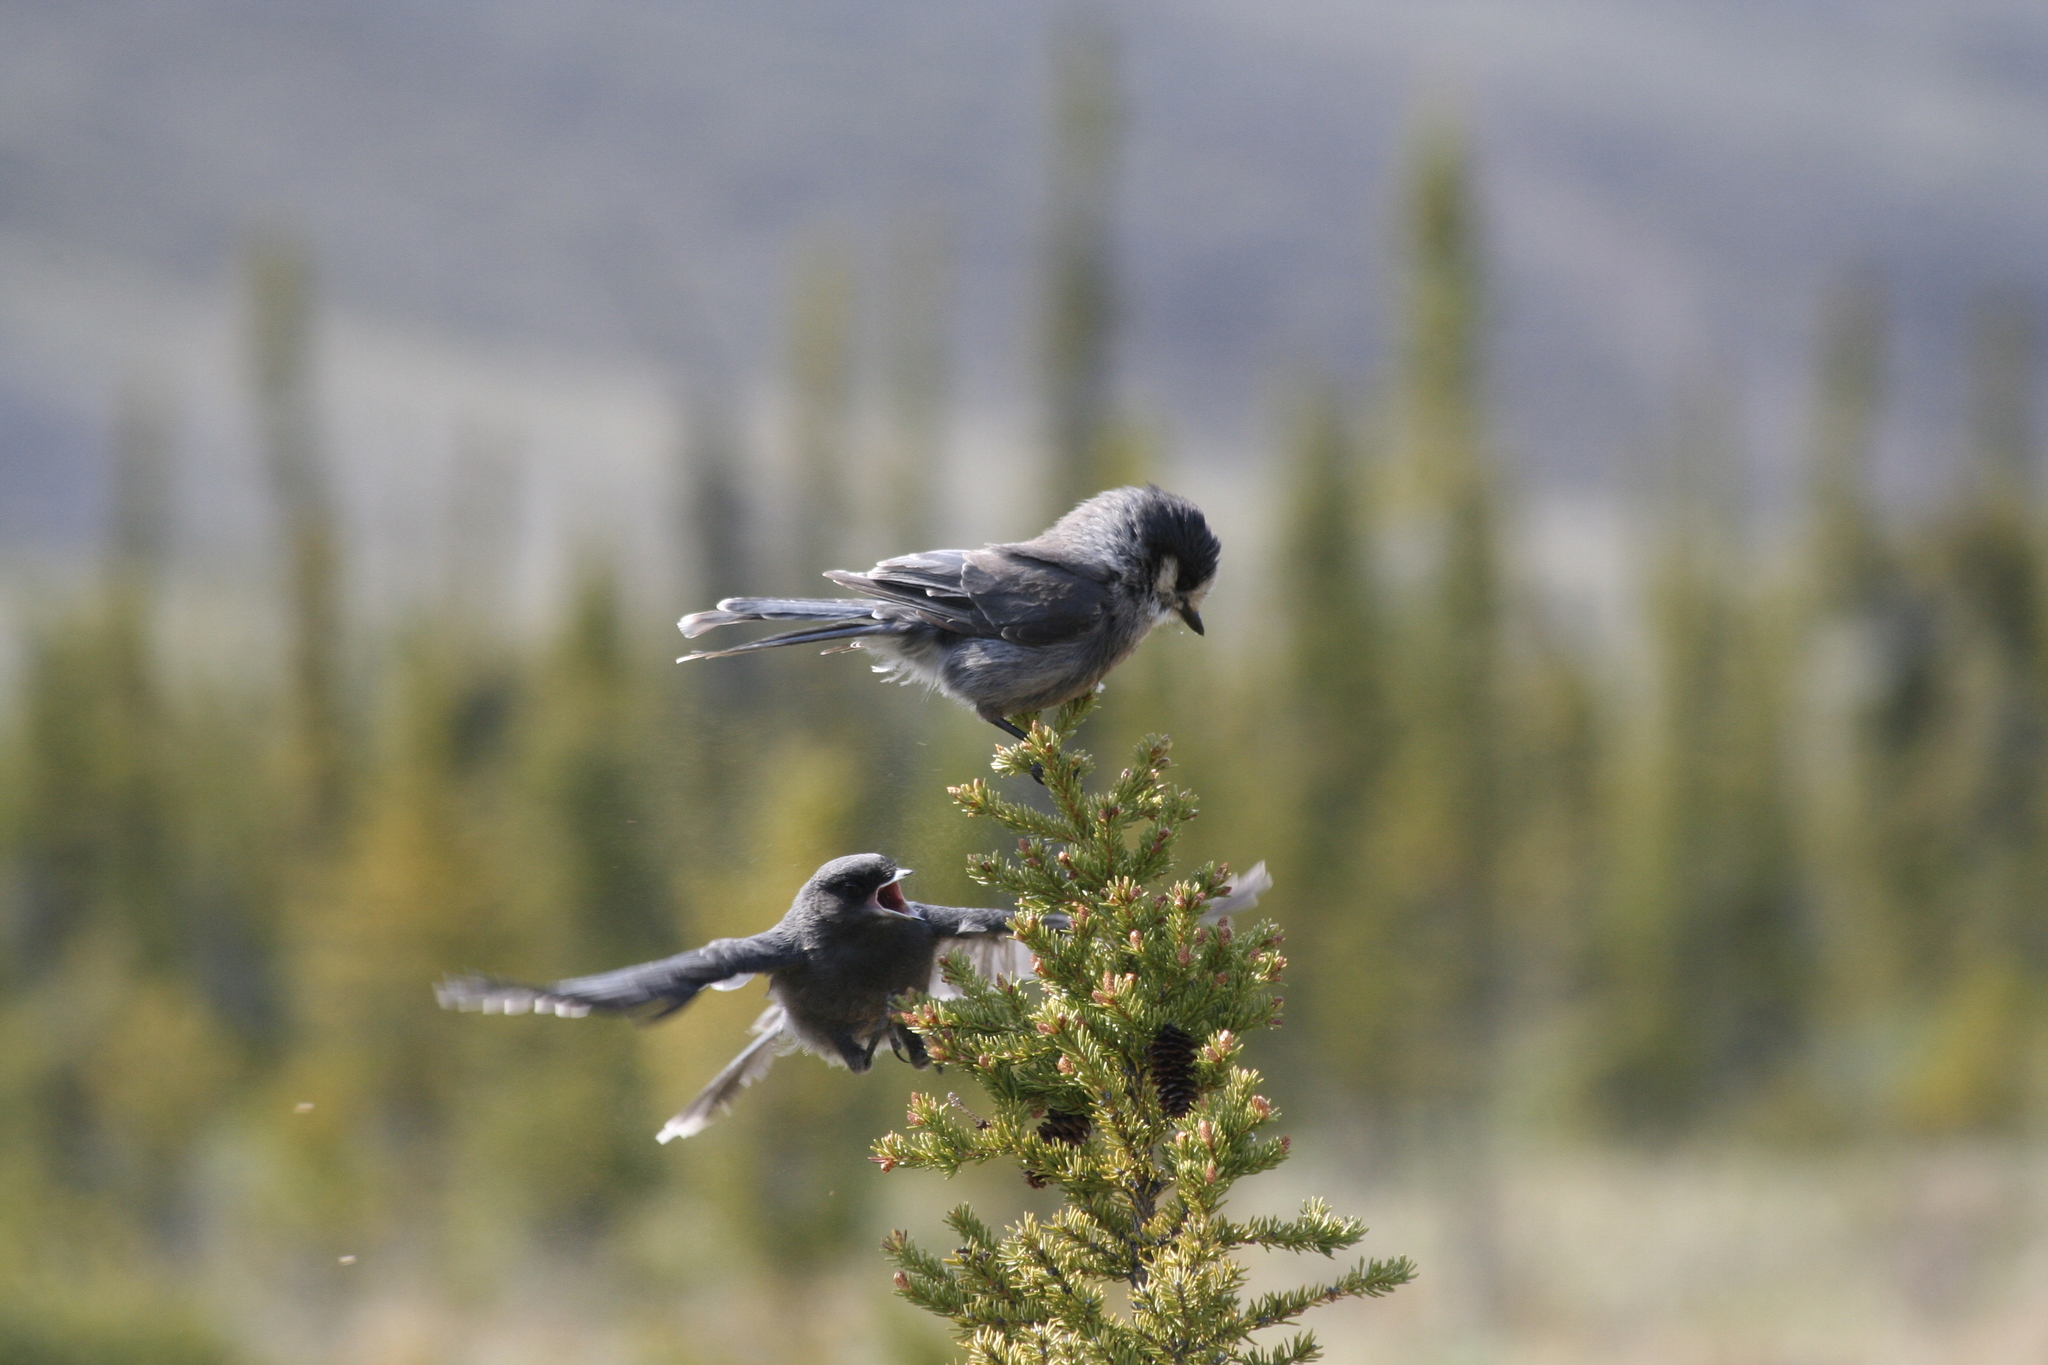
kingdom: Animalia
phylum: Chordata
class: Aves
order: Passeriformes
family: Corvidae
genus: Perisoreus
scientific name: Perisoreus canadensis
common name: Gray jay
